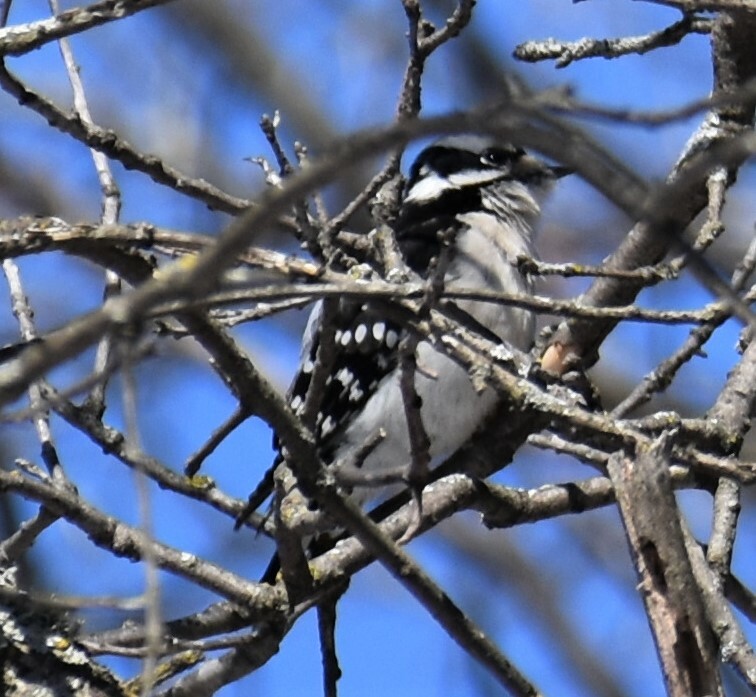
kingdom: Animalia
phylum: Chordata
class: Aves
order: Piciformes
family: Picidae
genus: Dryobates
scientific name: Dryobates pubescens
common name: Downy woodpecker
